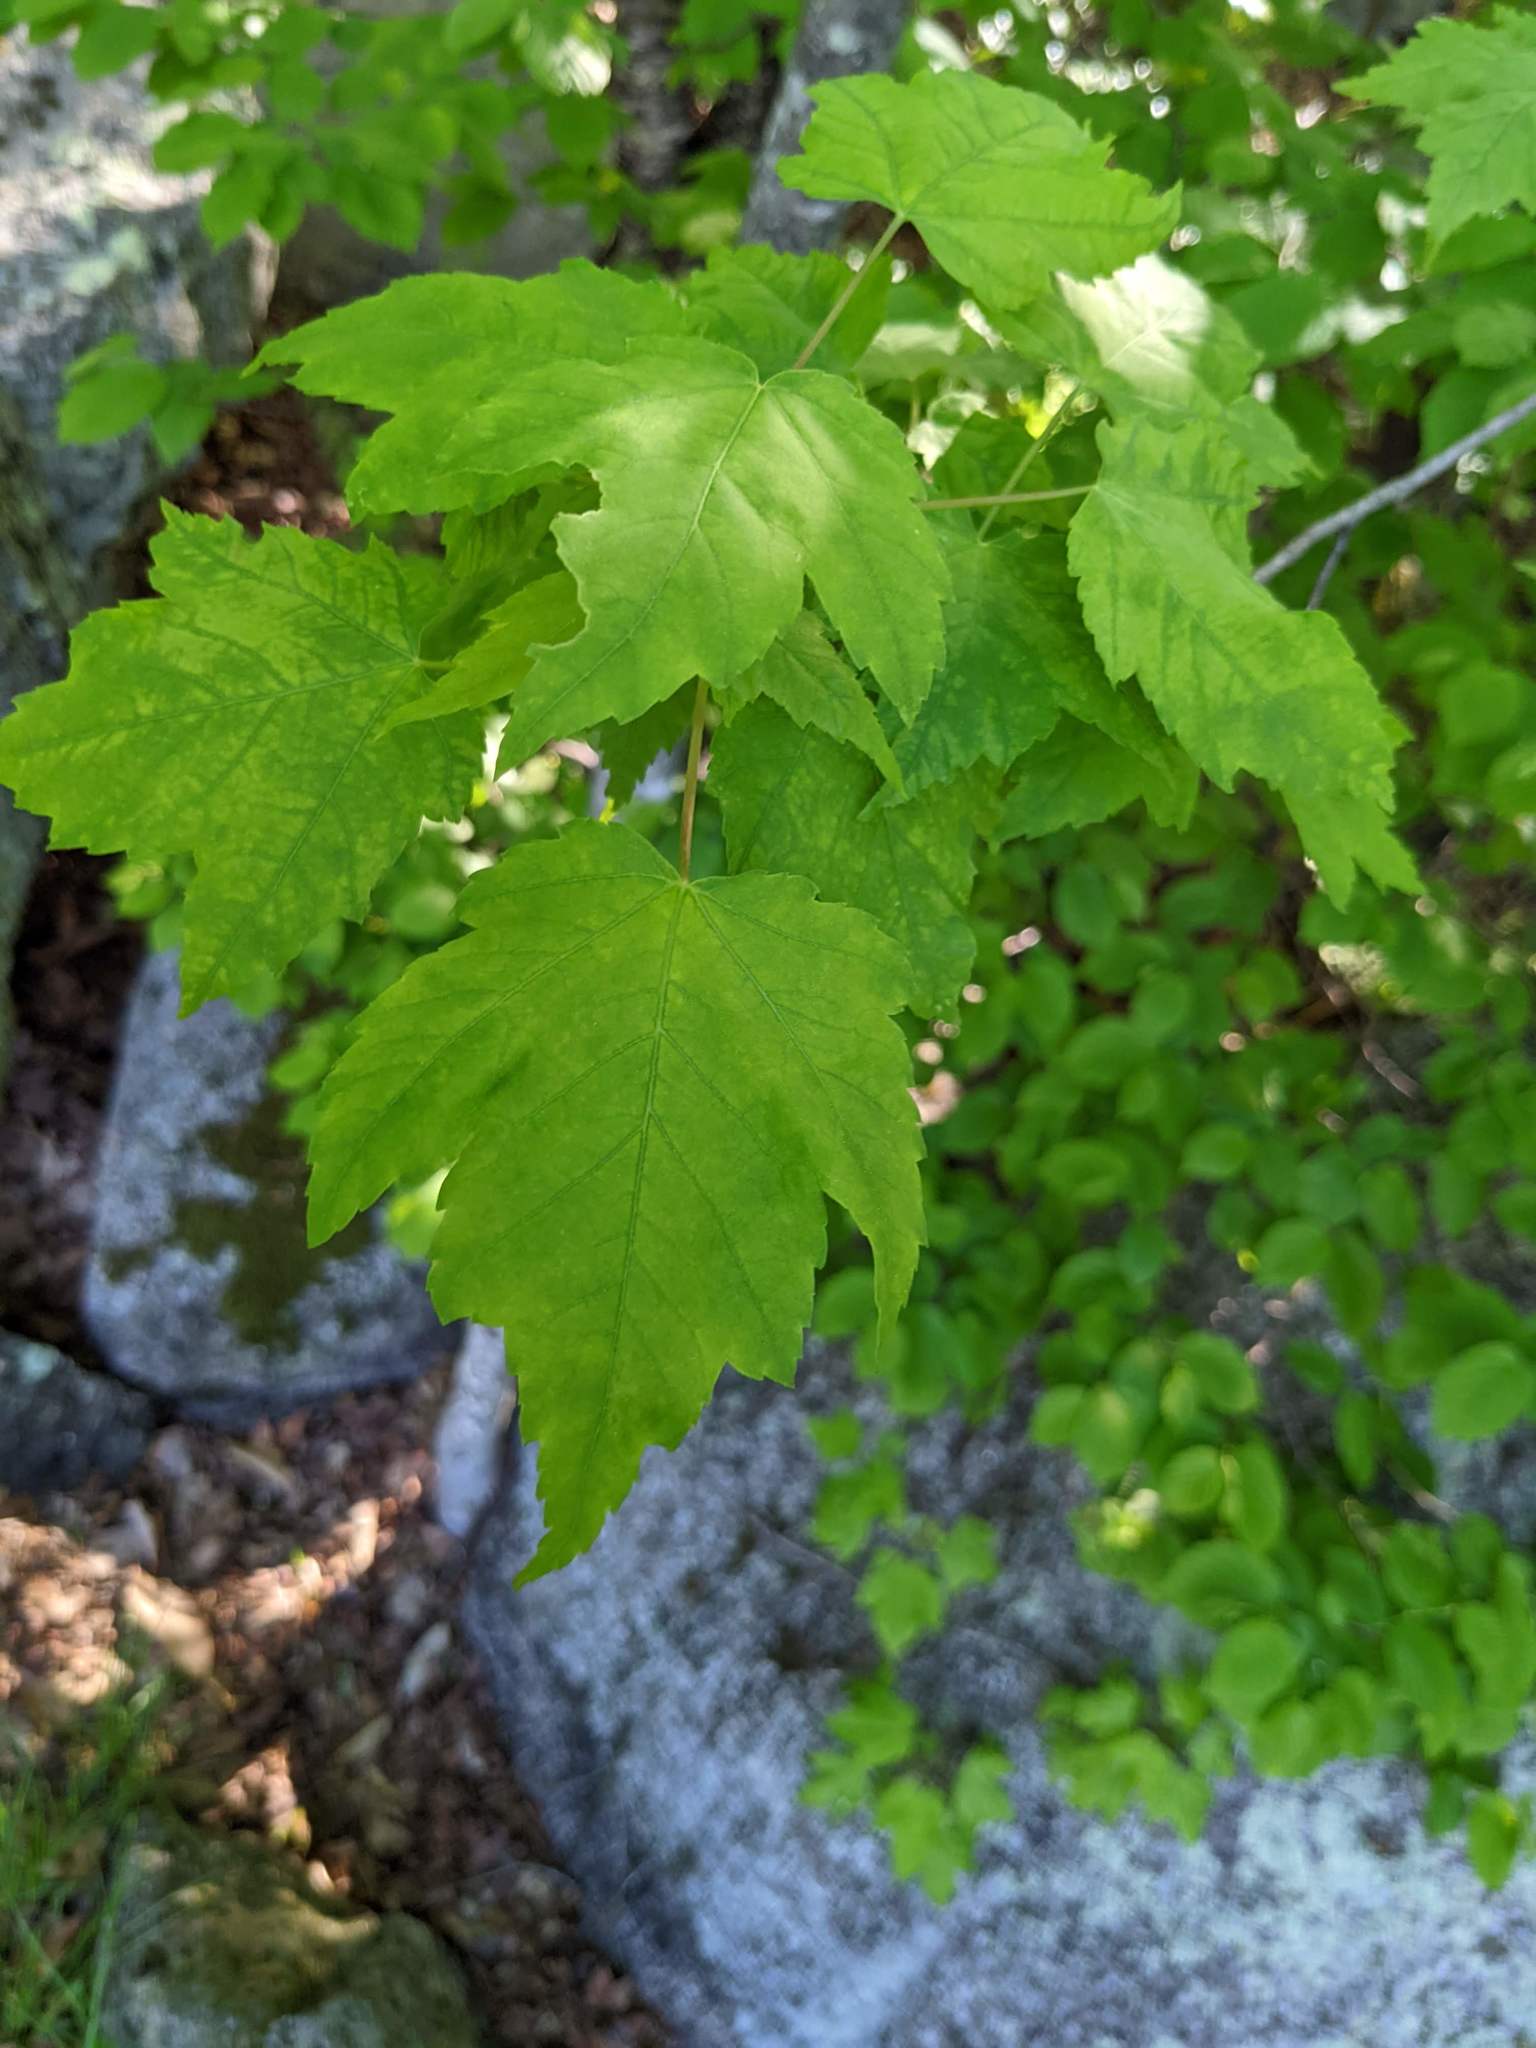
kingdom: Plantae
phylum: Tracheophyta
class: Magnoliopsida
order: Sapindales
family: Sapindaceae
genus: Acer
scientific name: Acer rubrum
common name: Red maple
